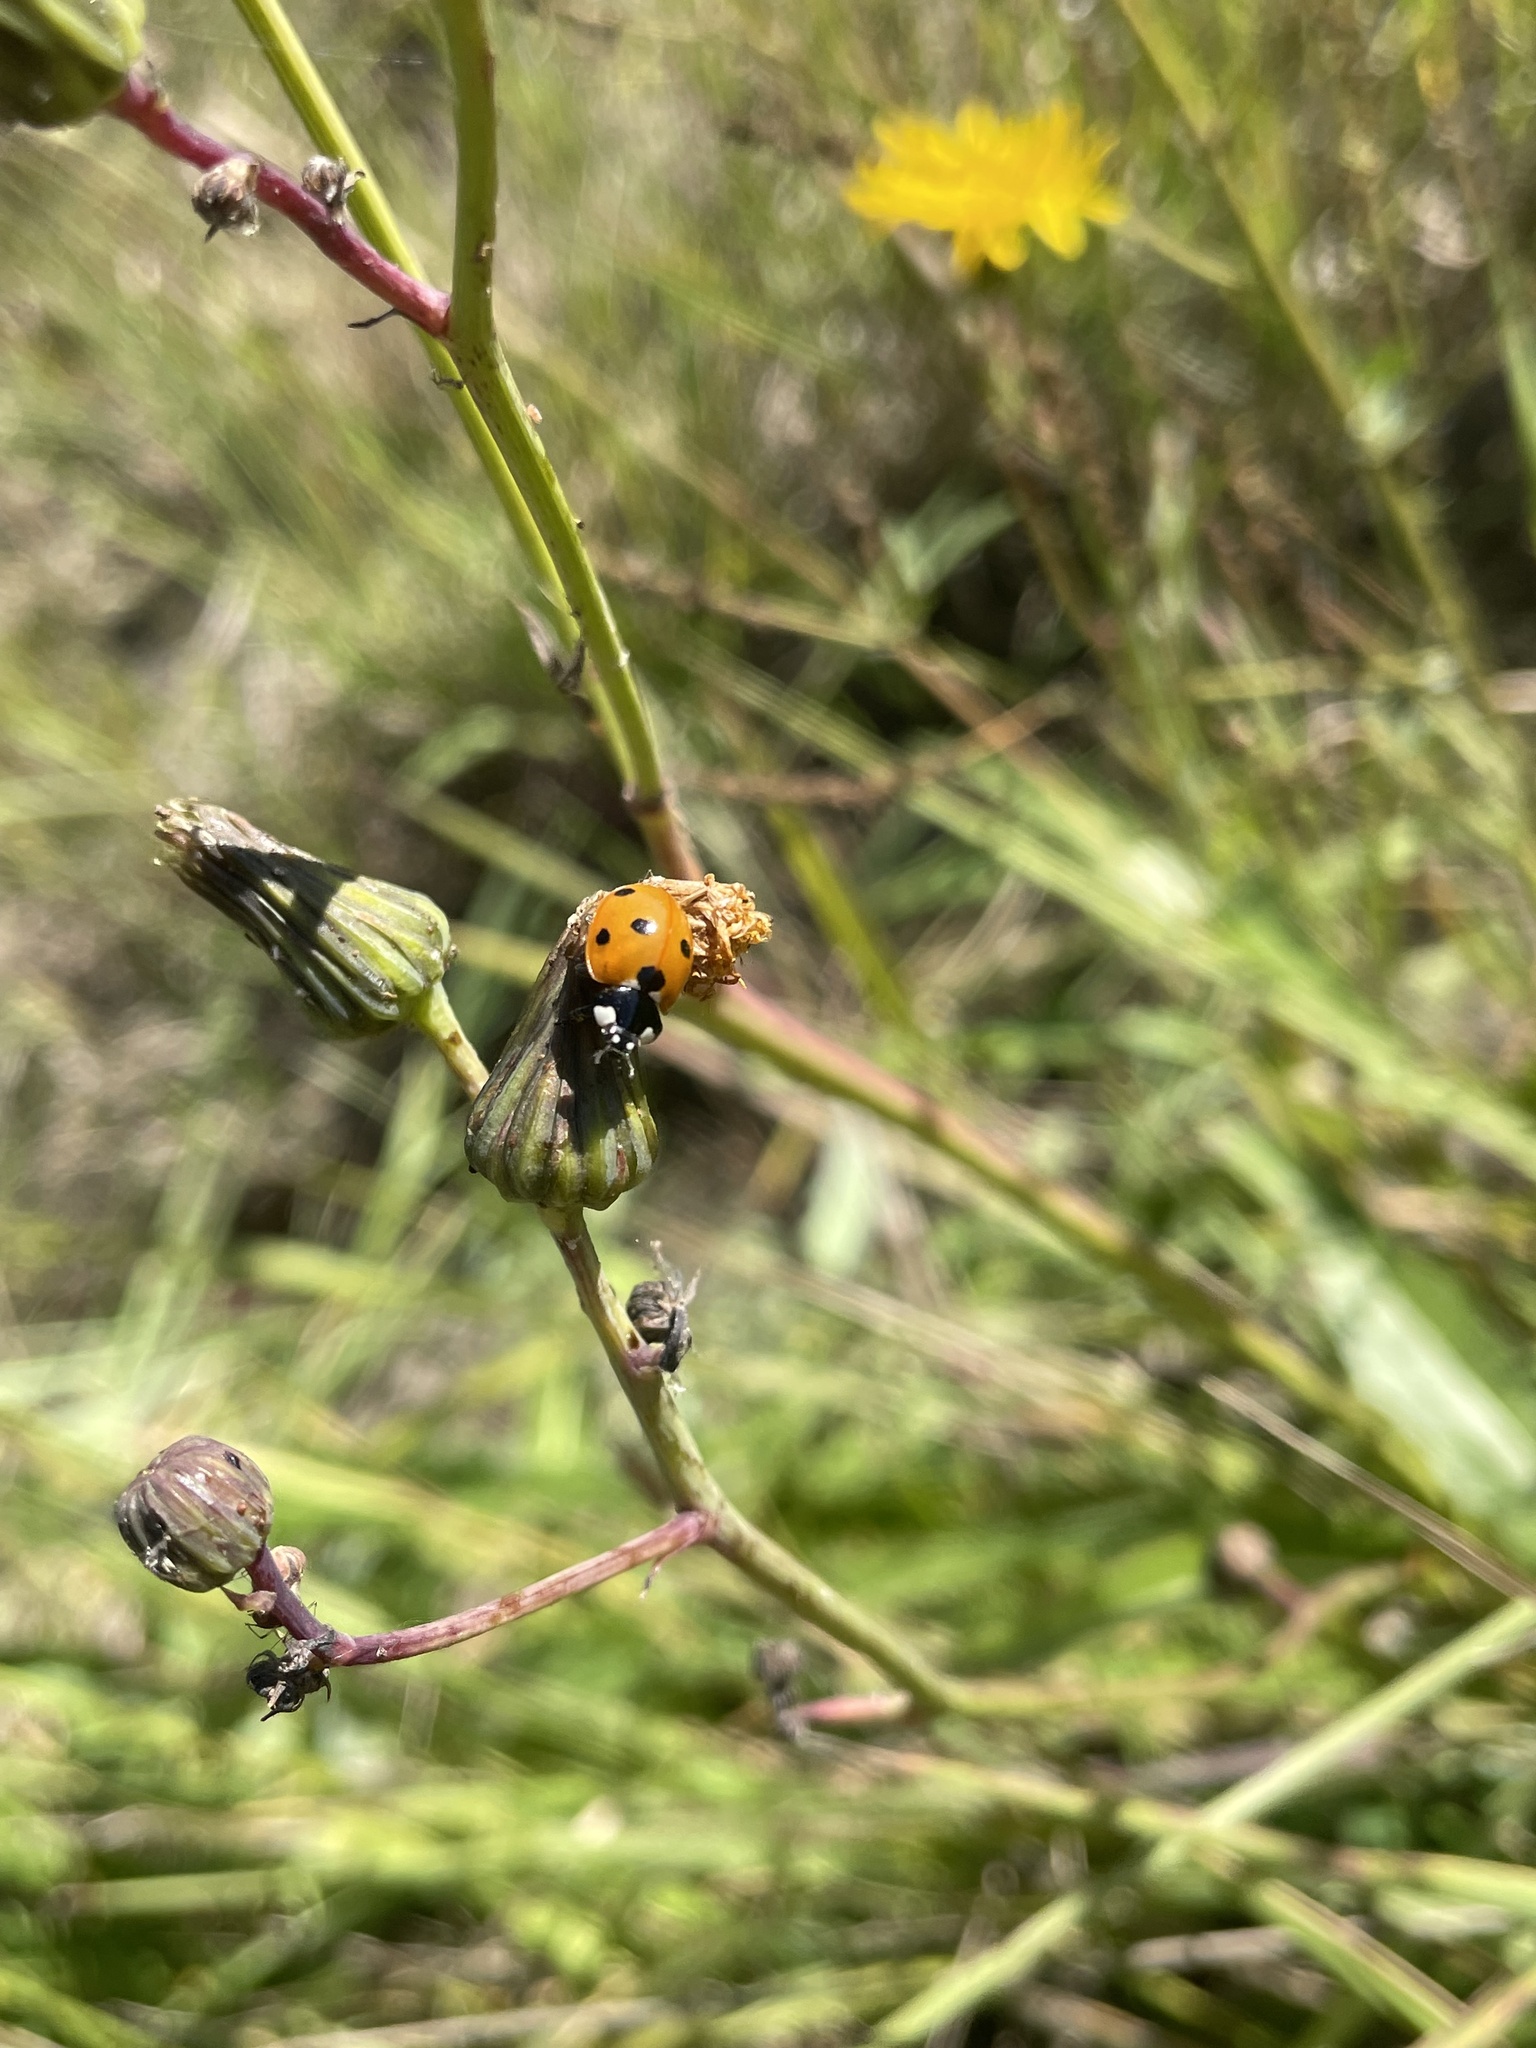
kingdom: Animalia
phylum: Arthropoda
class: Insecta
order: Coleoptera
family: Coccinellidae
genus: Coccinella
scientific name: Coccinella septempunctata
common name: Sevenspotted lady beetle
